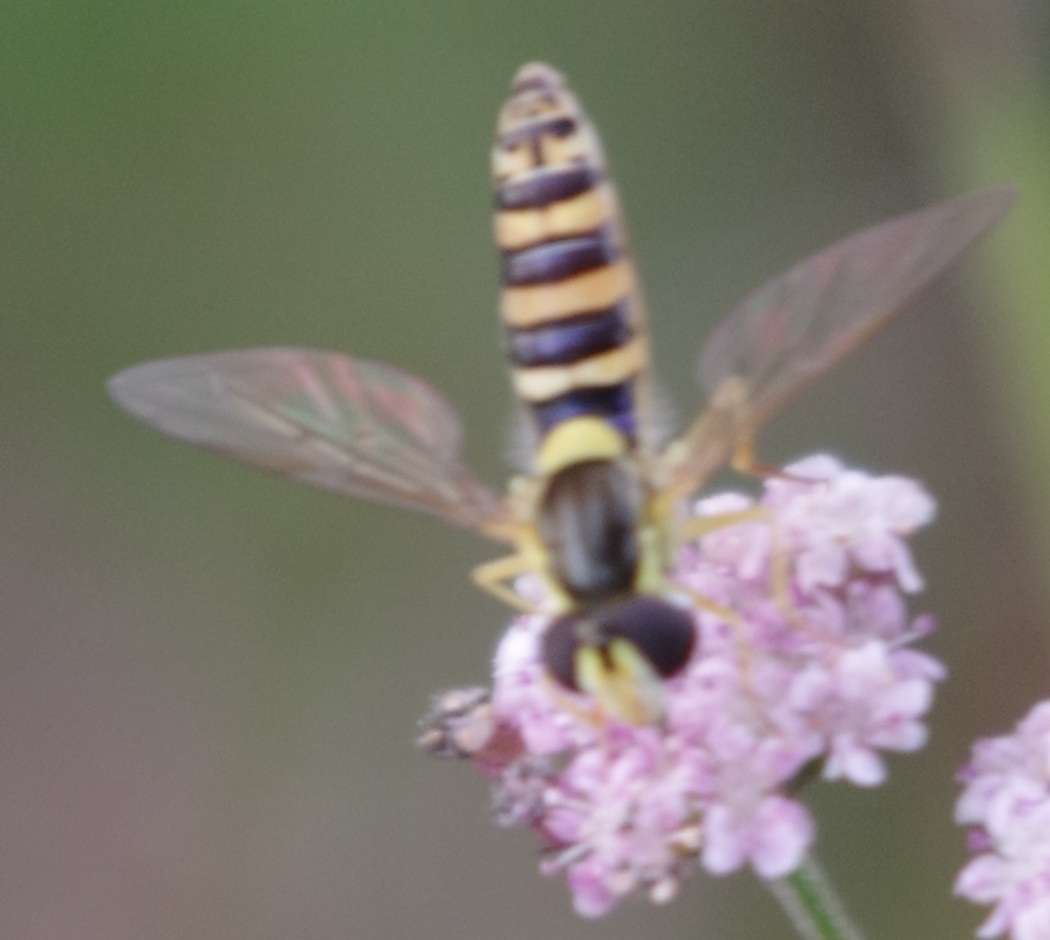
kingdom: Animalia
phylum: Arthropoda
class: Insecta
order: Diptera
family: Syrphidae
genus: Sphaerophoria
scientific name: Sphaerophoria
